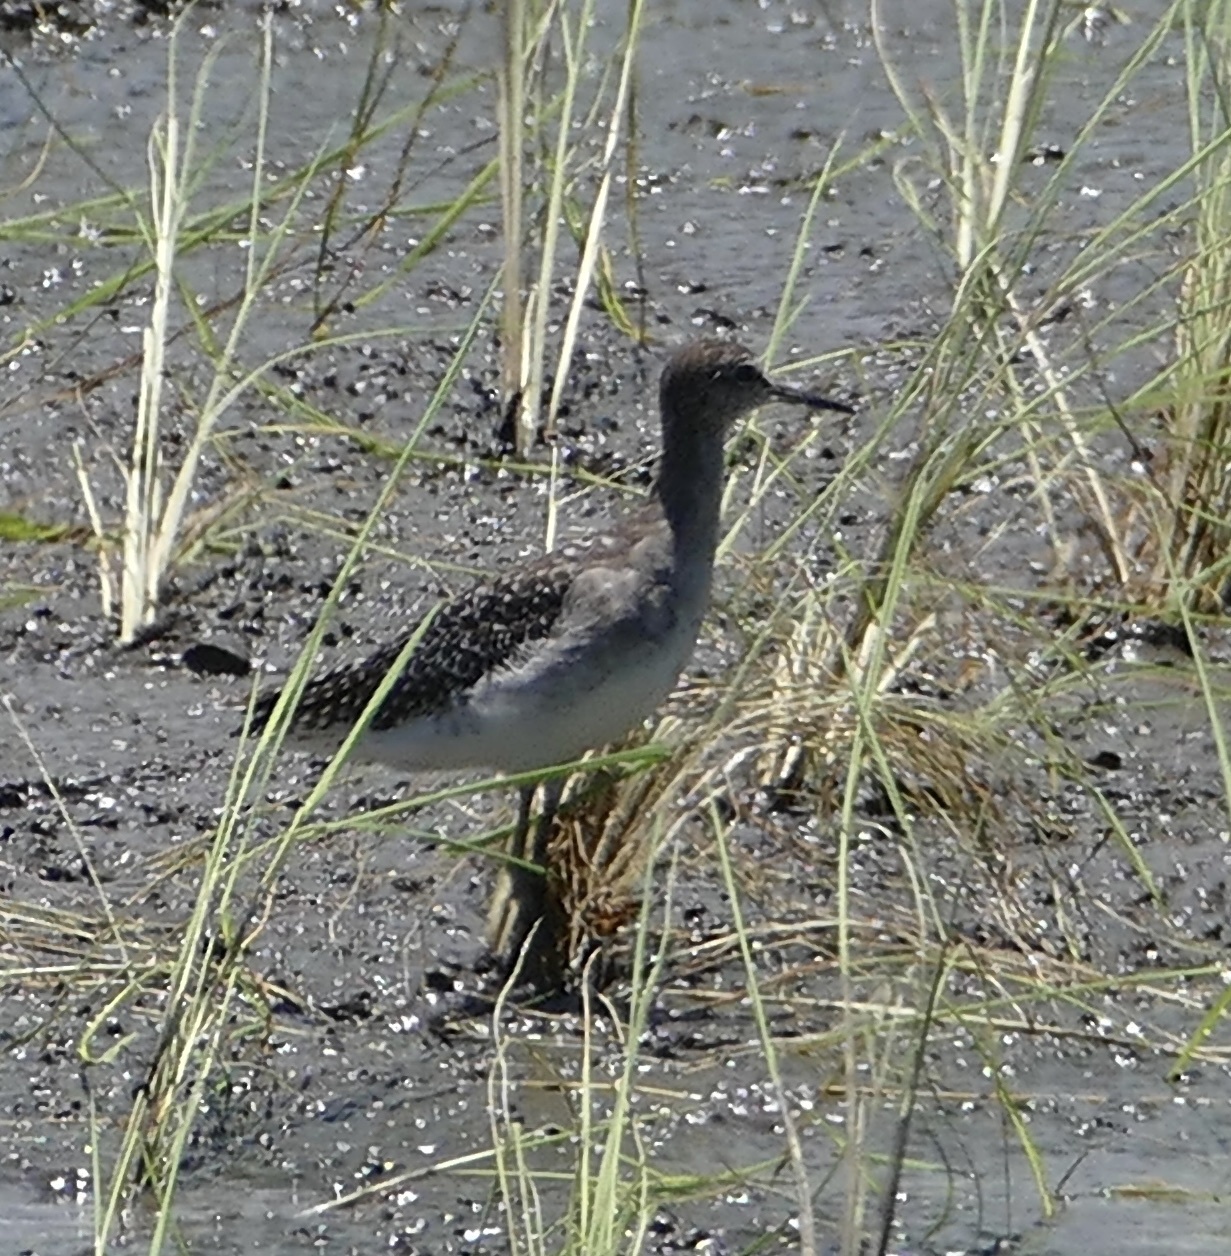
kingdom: Animalia
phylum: Chordata
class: Aves
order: Charadriiformes
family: Scolopacidae
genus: Tringa
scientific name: Tringa glareola
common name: Wood sandpiper
